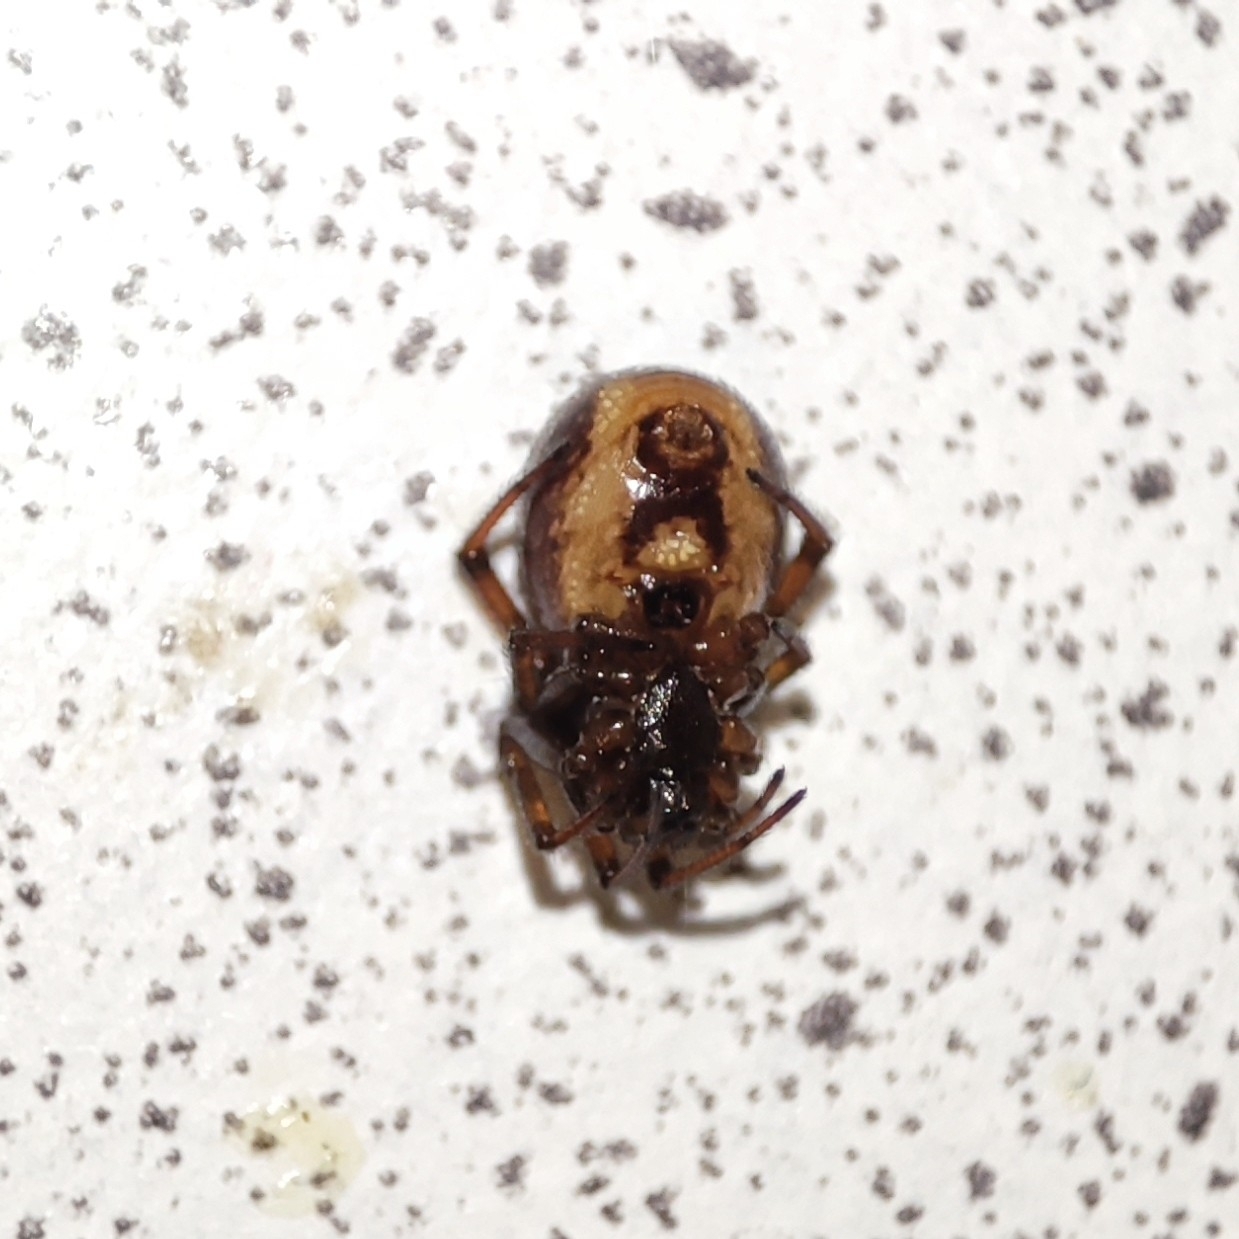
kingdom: Animalia
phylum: Arthropoda
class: Arachnida
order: Araneae
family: Theridiidae
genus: Steatoda
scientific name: Steatoda bipunctata
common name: False widow
